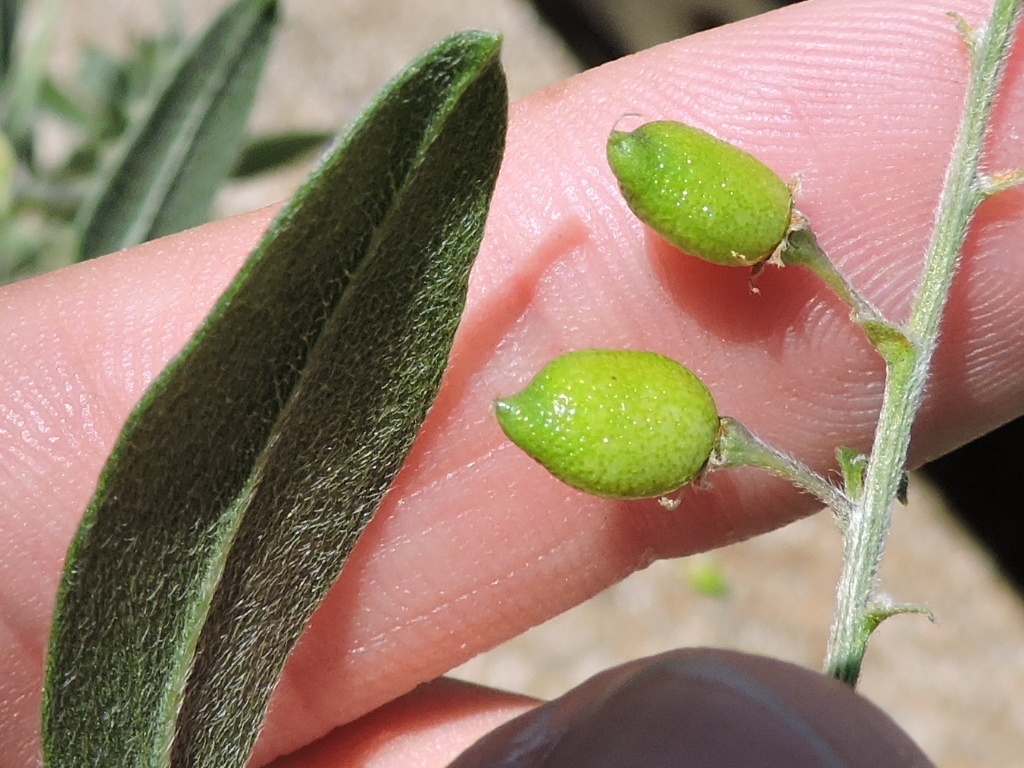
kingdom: Plantae
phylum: Tracheophyta
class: Magnoliopsida
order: Fabales
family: Fabaceae
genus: Pediomelum
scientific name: Pediomelum tenuiflorum
